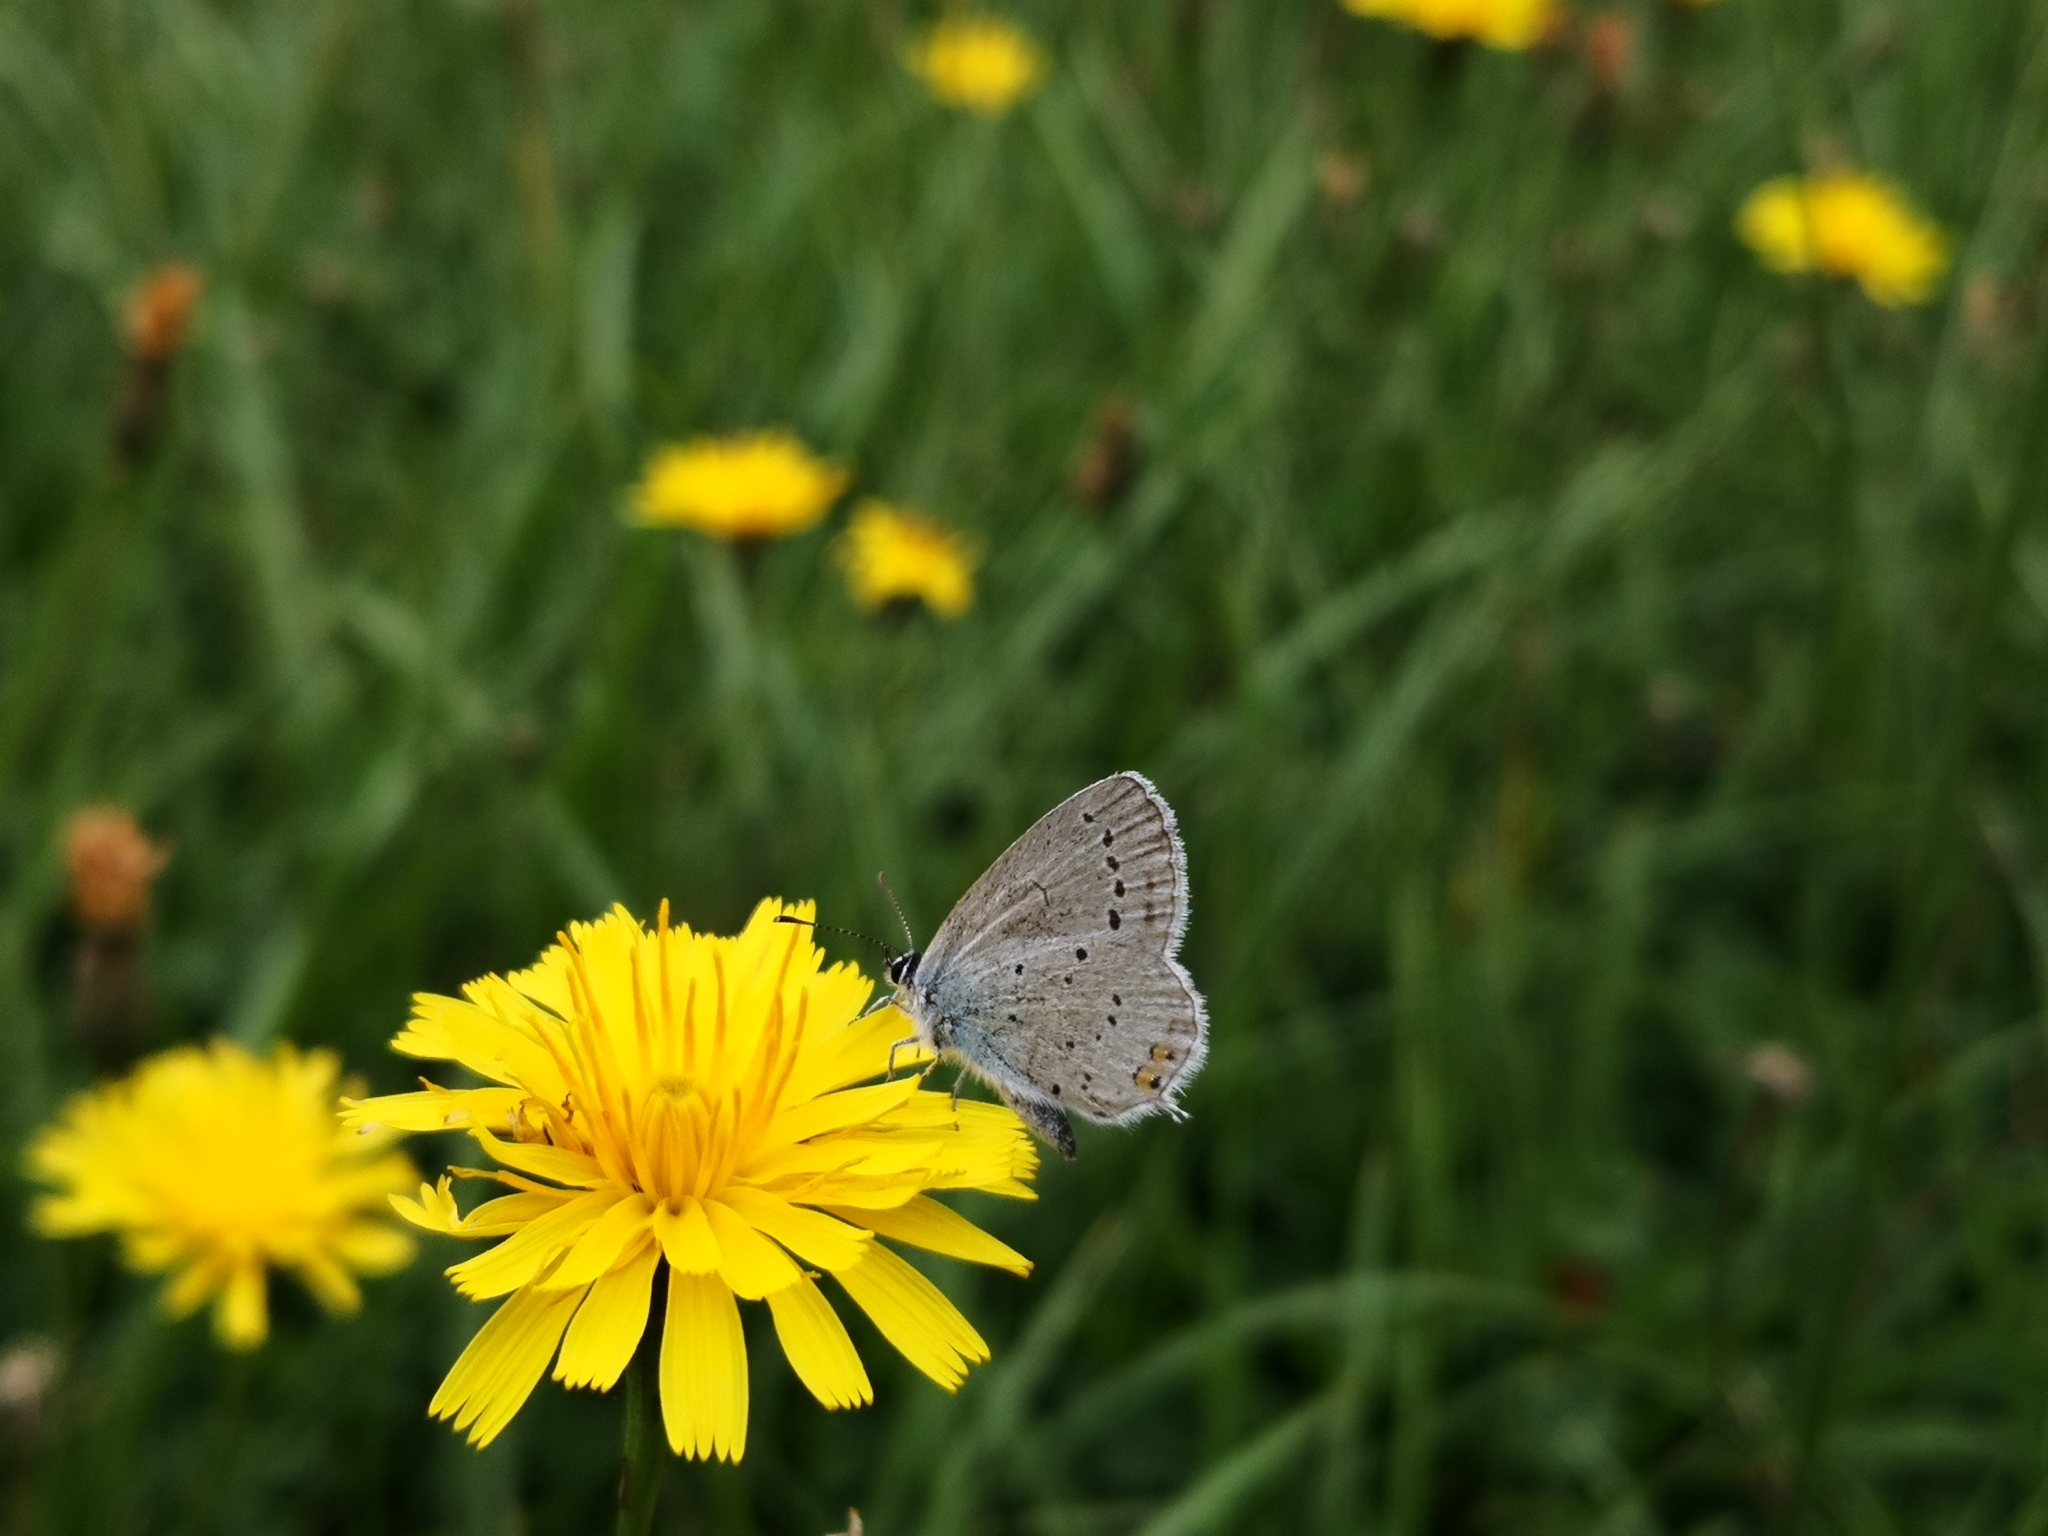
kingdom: Animalia
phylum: Arthropoda
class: Insecta
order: Lepidoptera
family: Lycaenidae
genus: Elkalyce
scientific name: Elkalyce argiades
